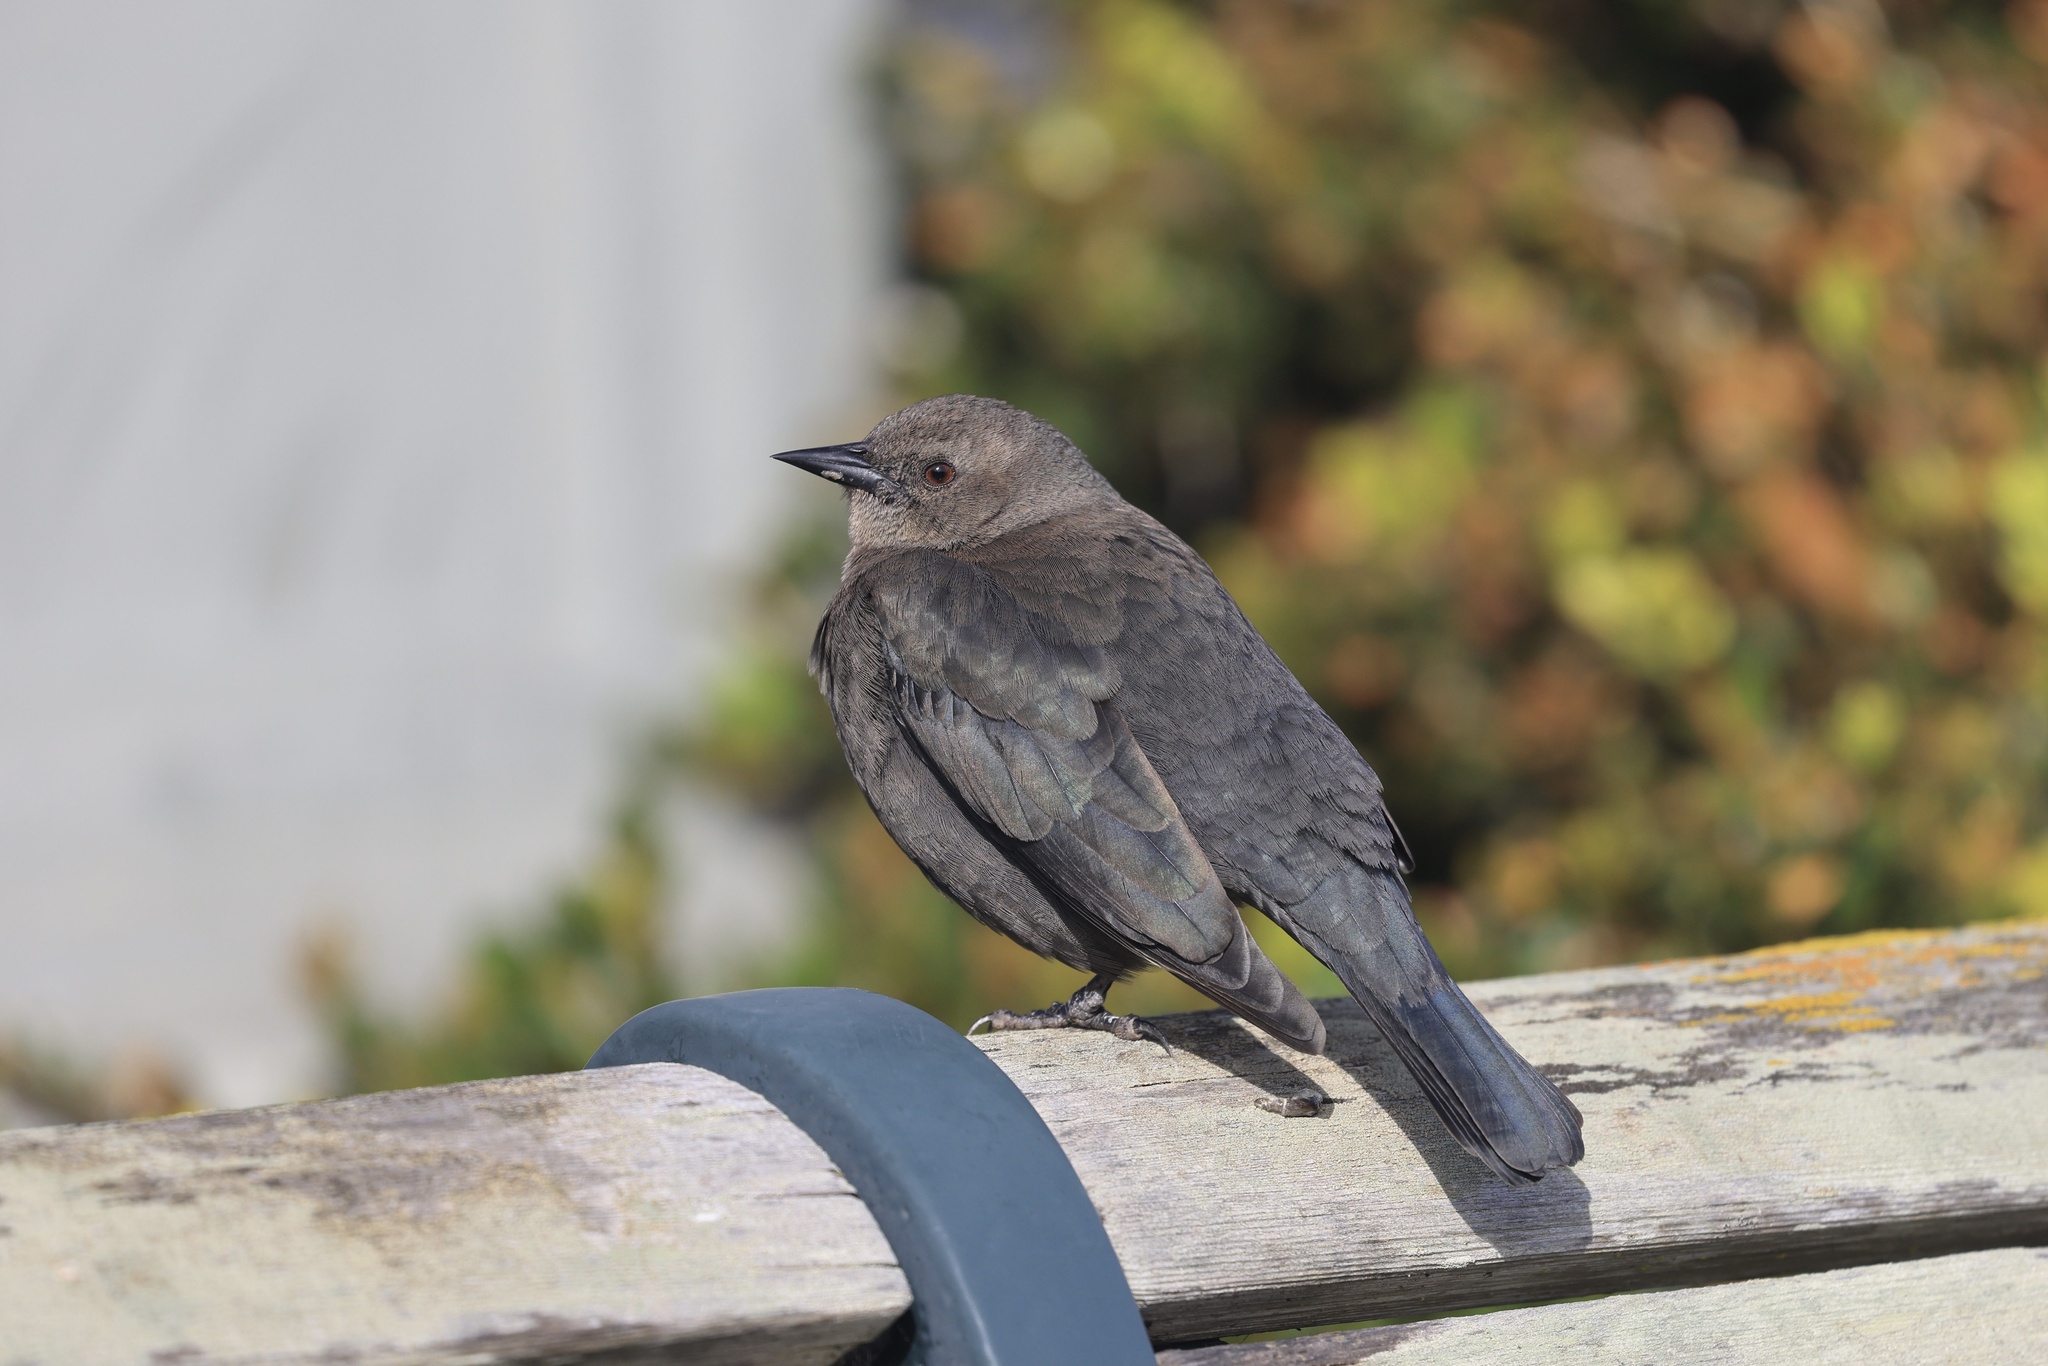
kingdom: Animalia
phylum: Chordata
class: Aves
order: Passeriformes
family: Icteridae
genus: Euphagus
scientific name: Euphagus cyanocephalus
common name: Brewer's blackbird
